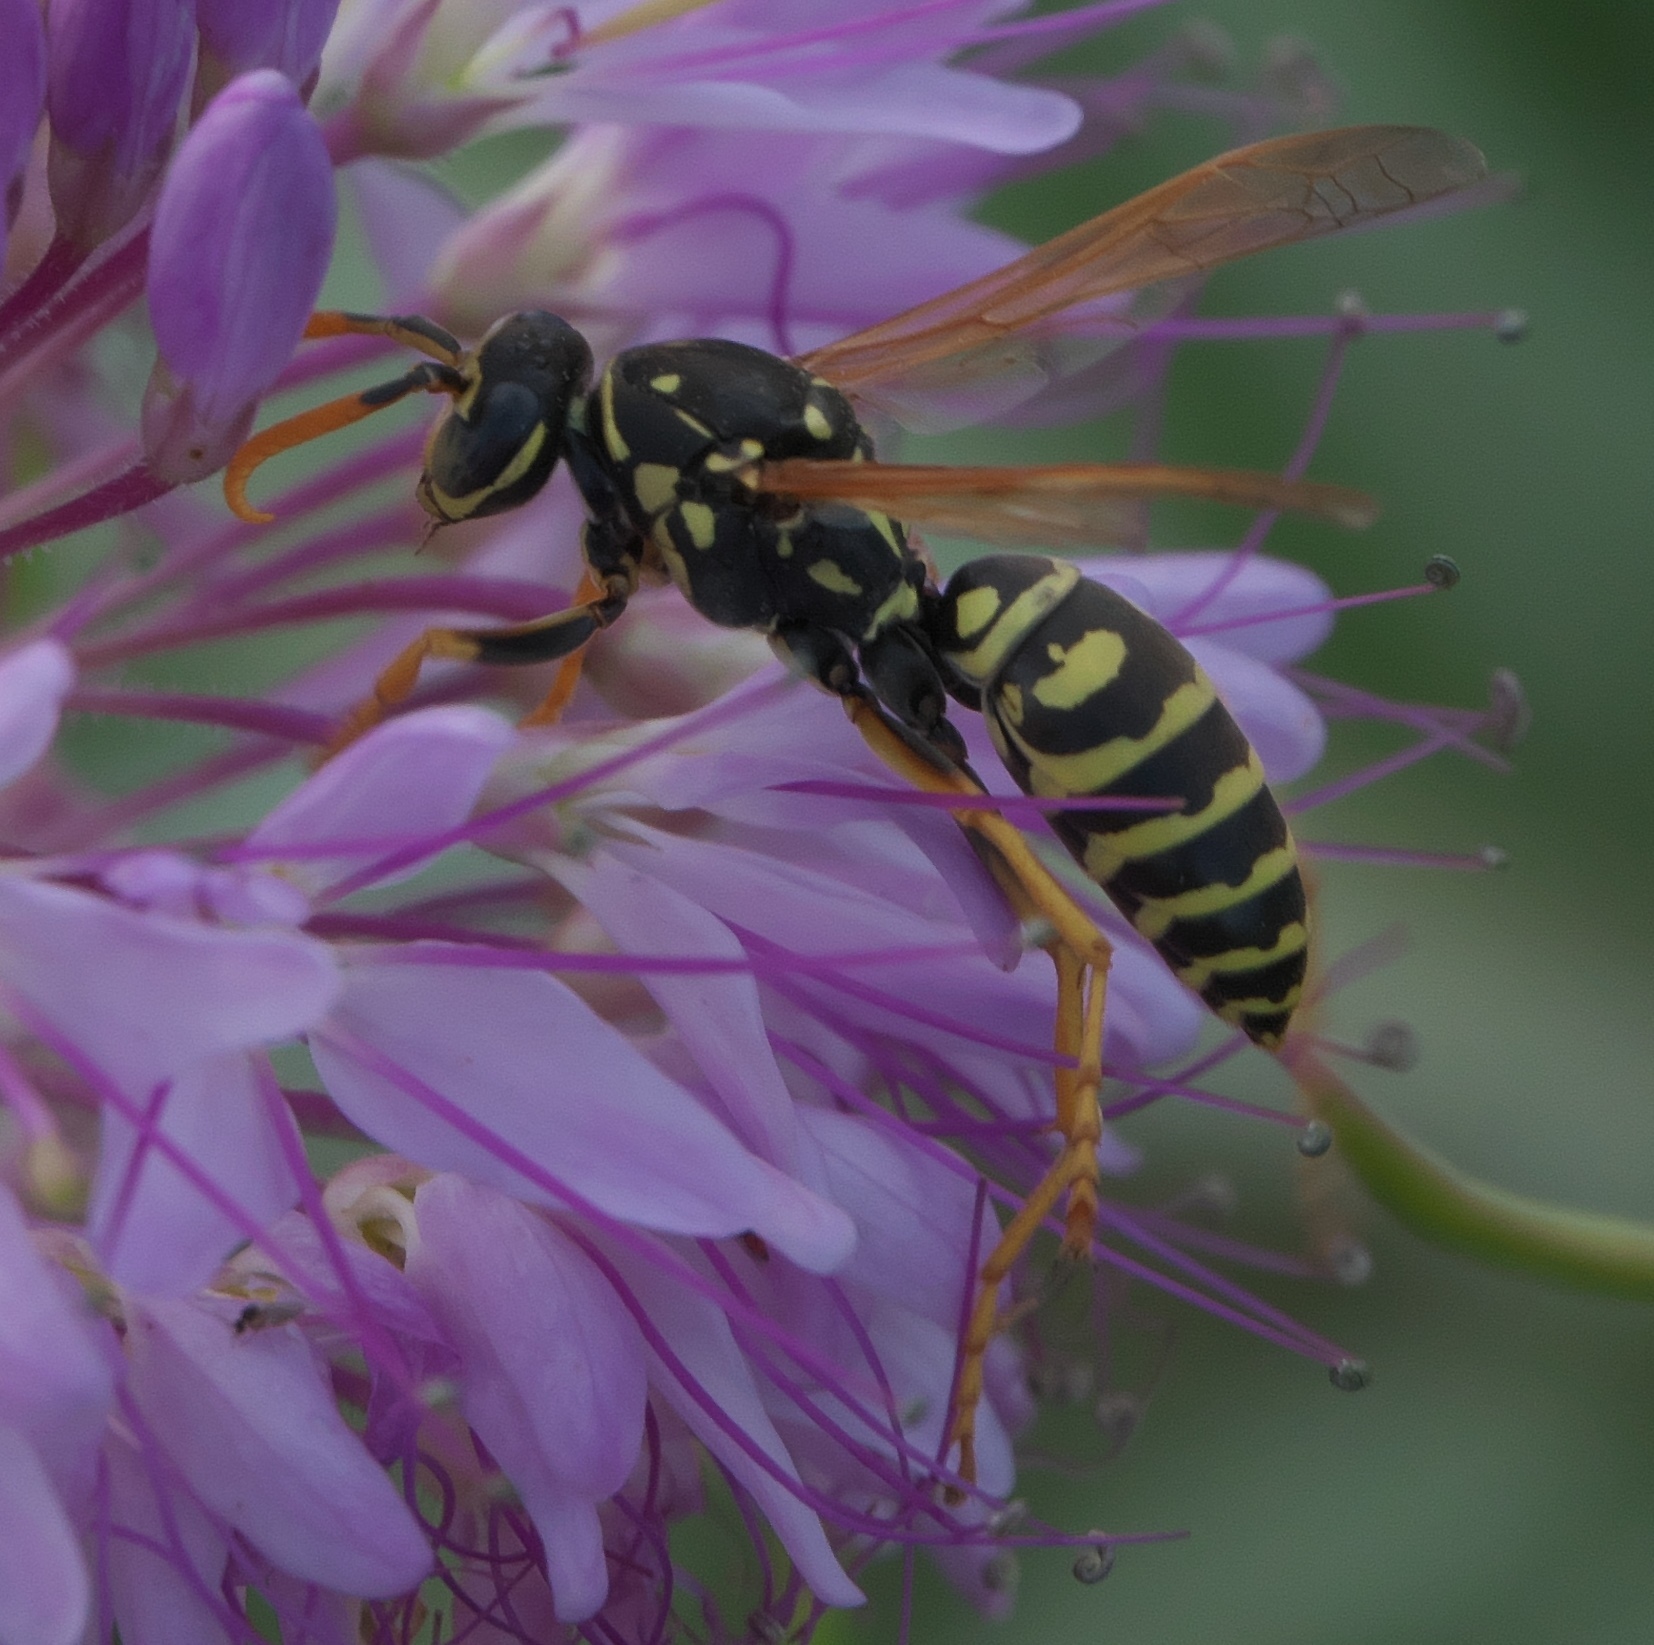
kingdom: Animalia
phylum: Arthropoda
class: Insecta
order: Hymenoptera
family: Eumenidae
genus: Polistes
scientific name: Polistes dominula
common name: Paper wasp
